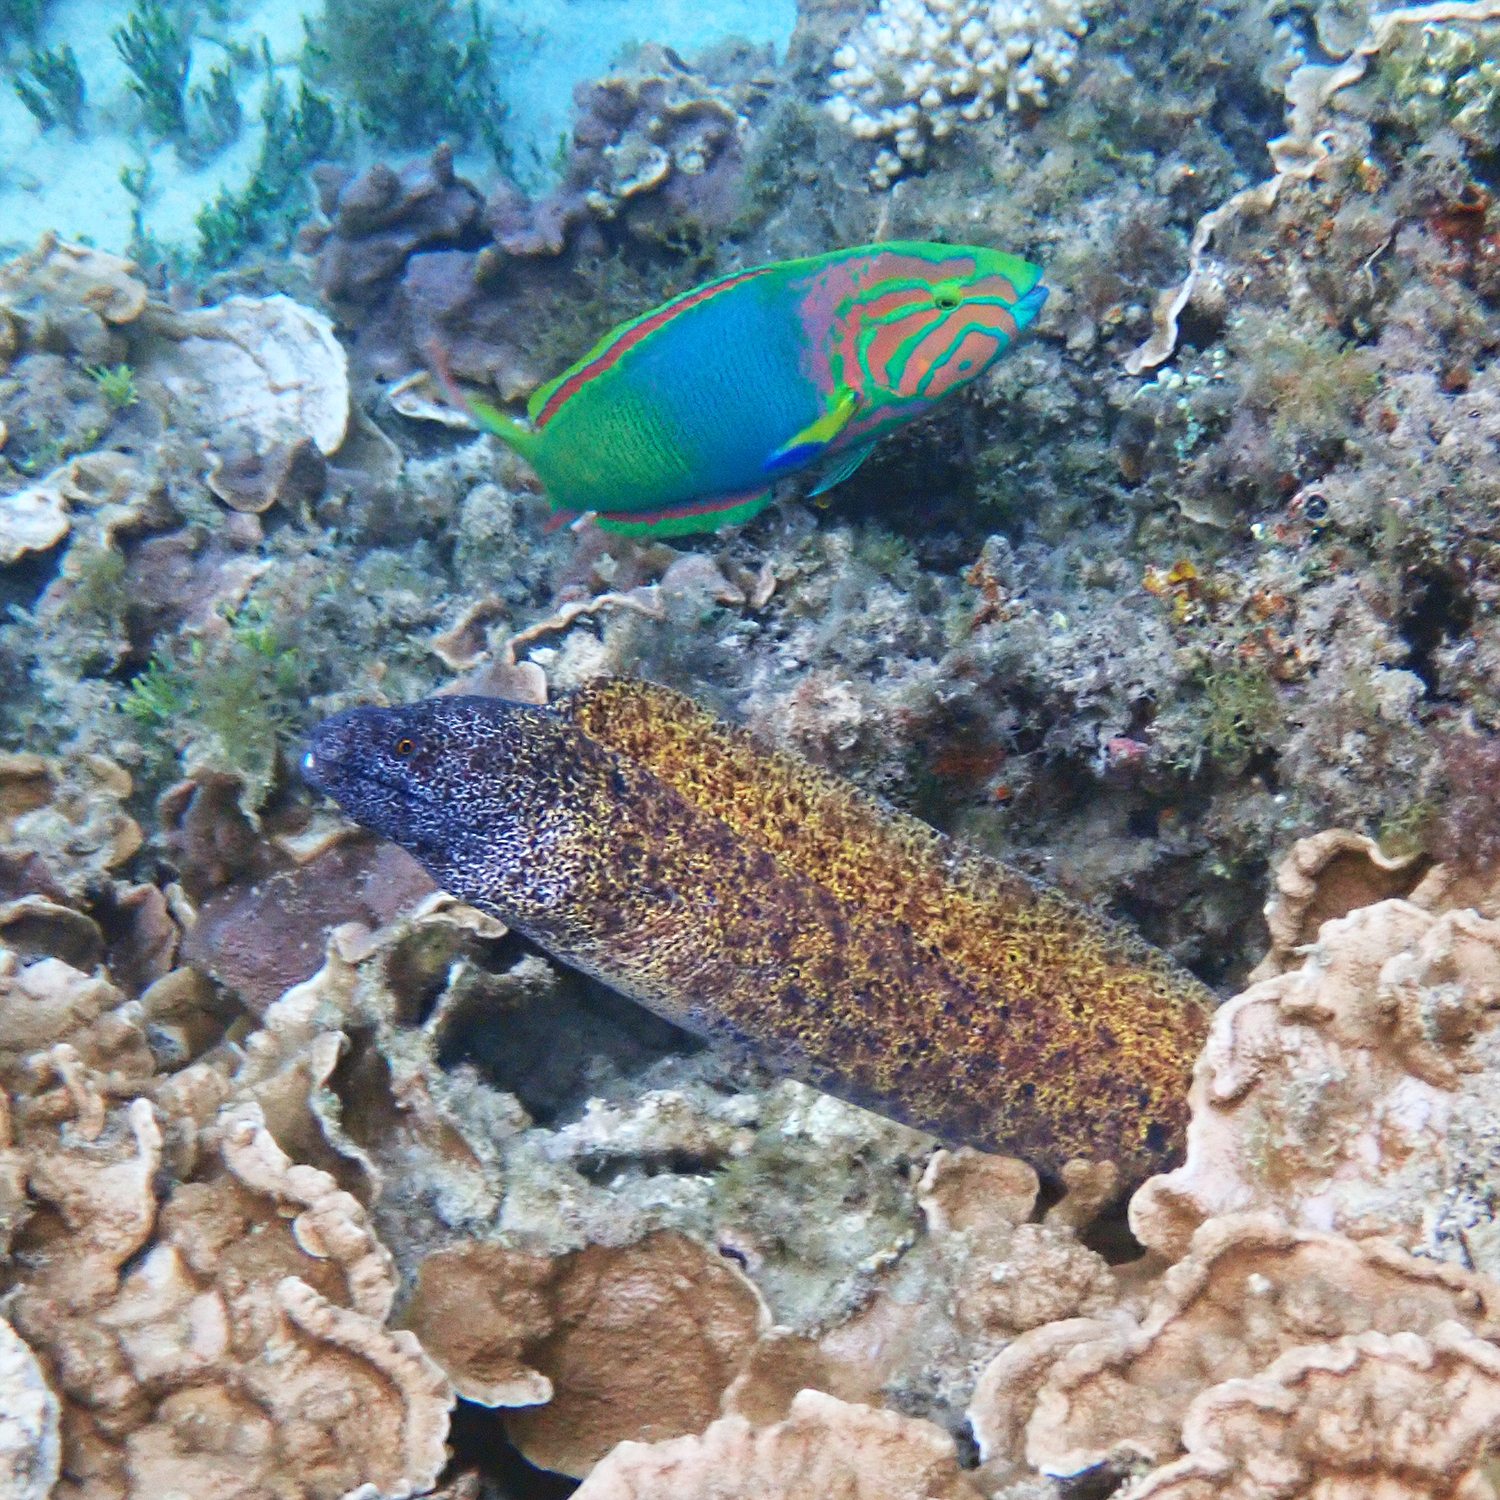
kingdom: Animalia
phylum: Chordata
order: Anguilliformes
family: Muraenidae
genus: Gymnothorax
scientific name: Gymnothorax annasona
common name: Lord howe island moray
